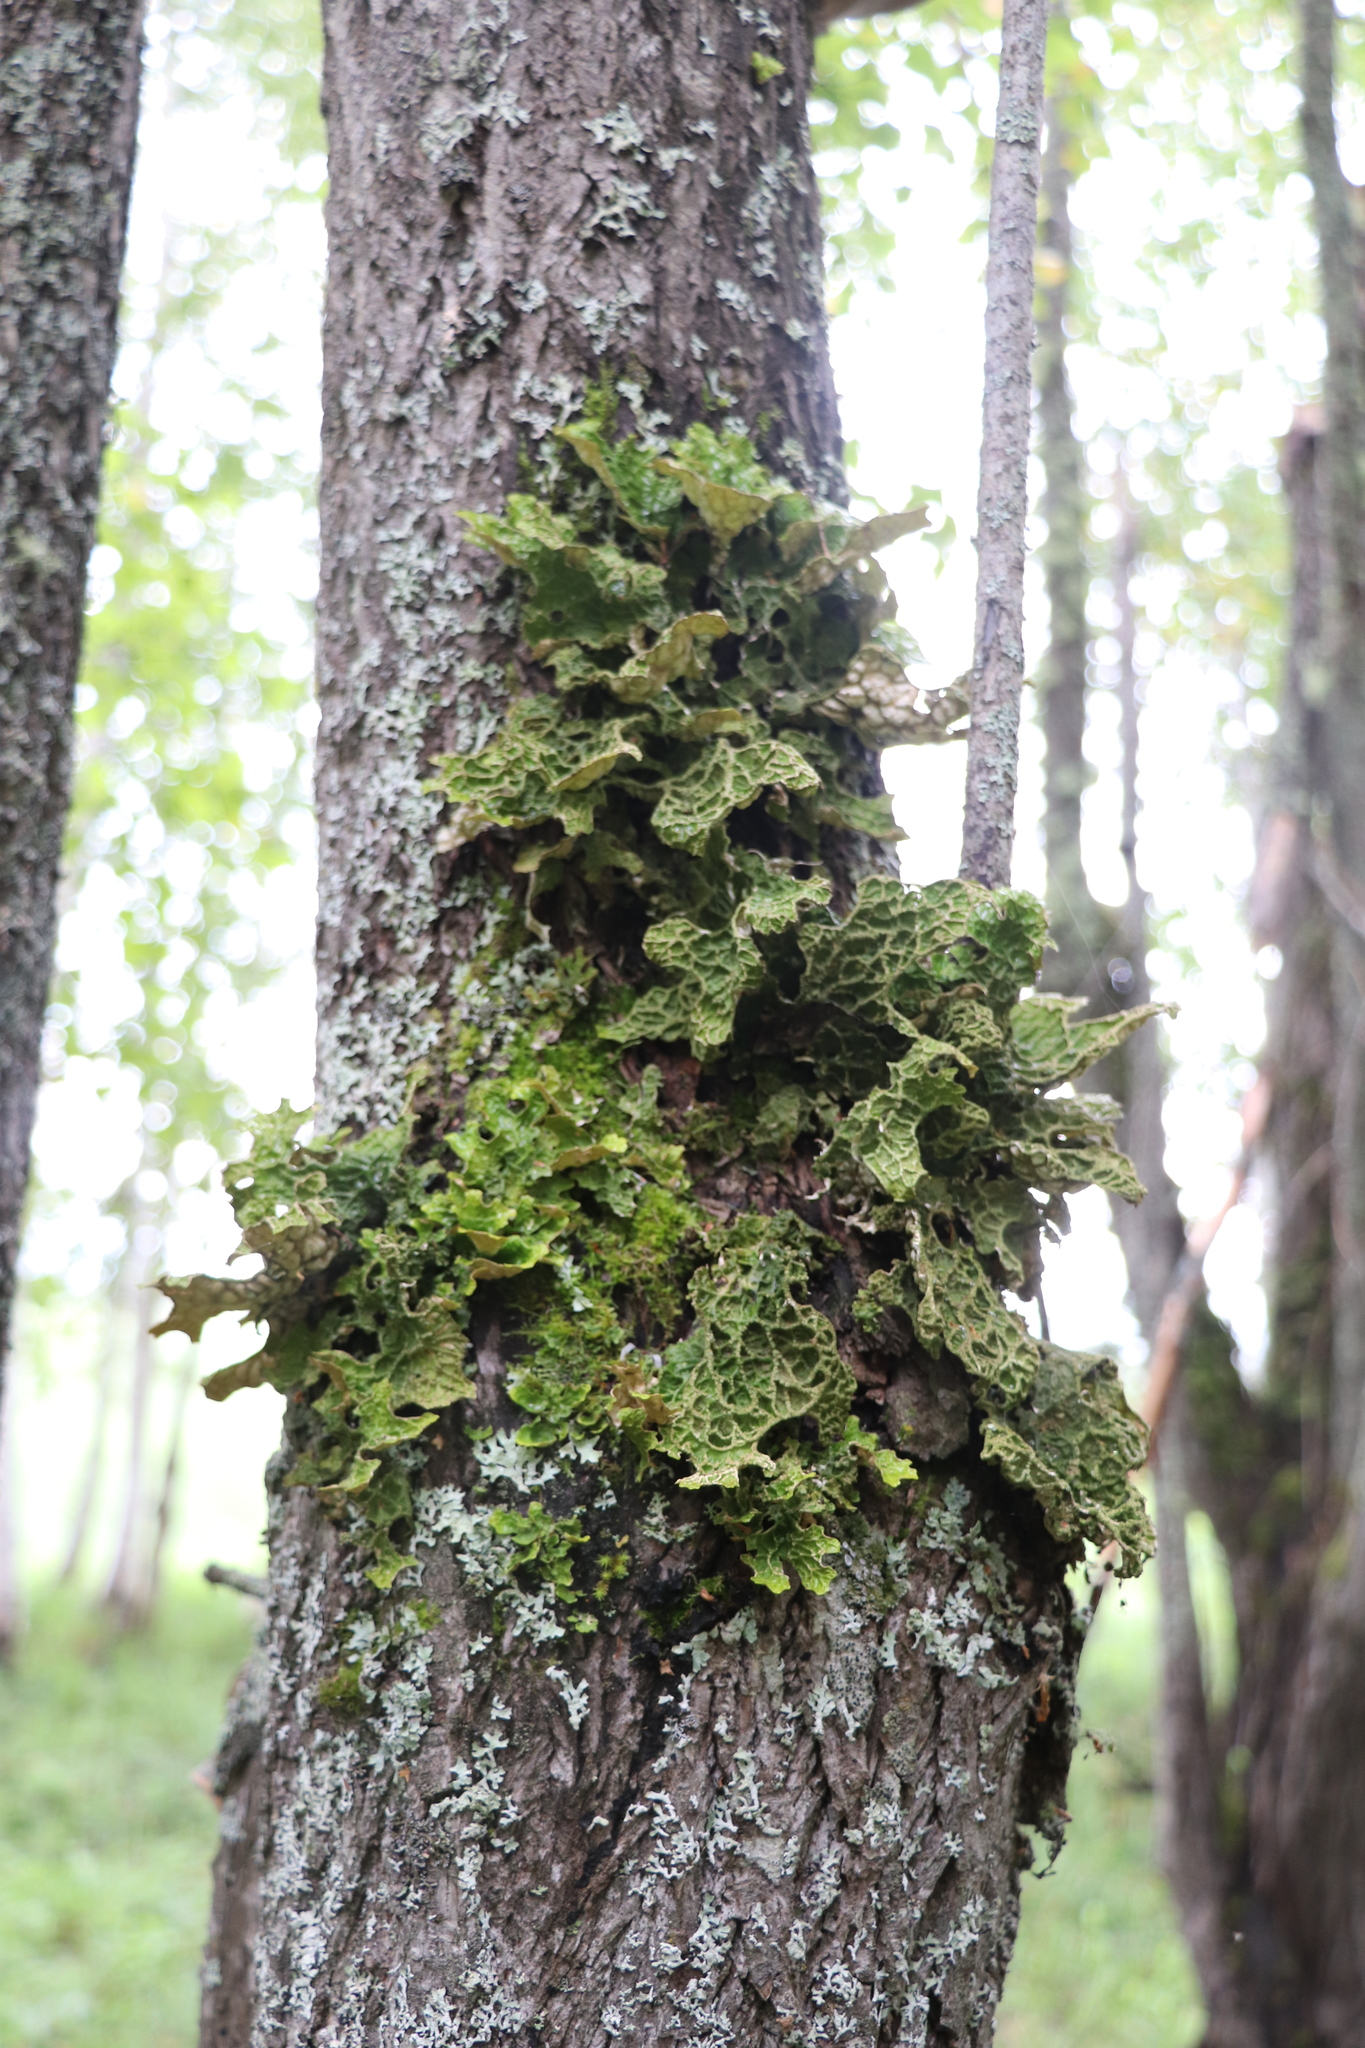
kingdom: Fungi
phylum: Ascomycota
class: Lecanoromycetes
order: Peltigerales
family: Lobariaceae
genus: Lobaria
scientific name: Lobaria pulmonaria
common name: Lungwort
